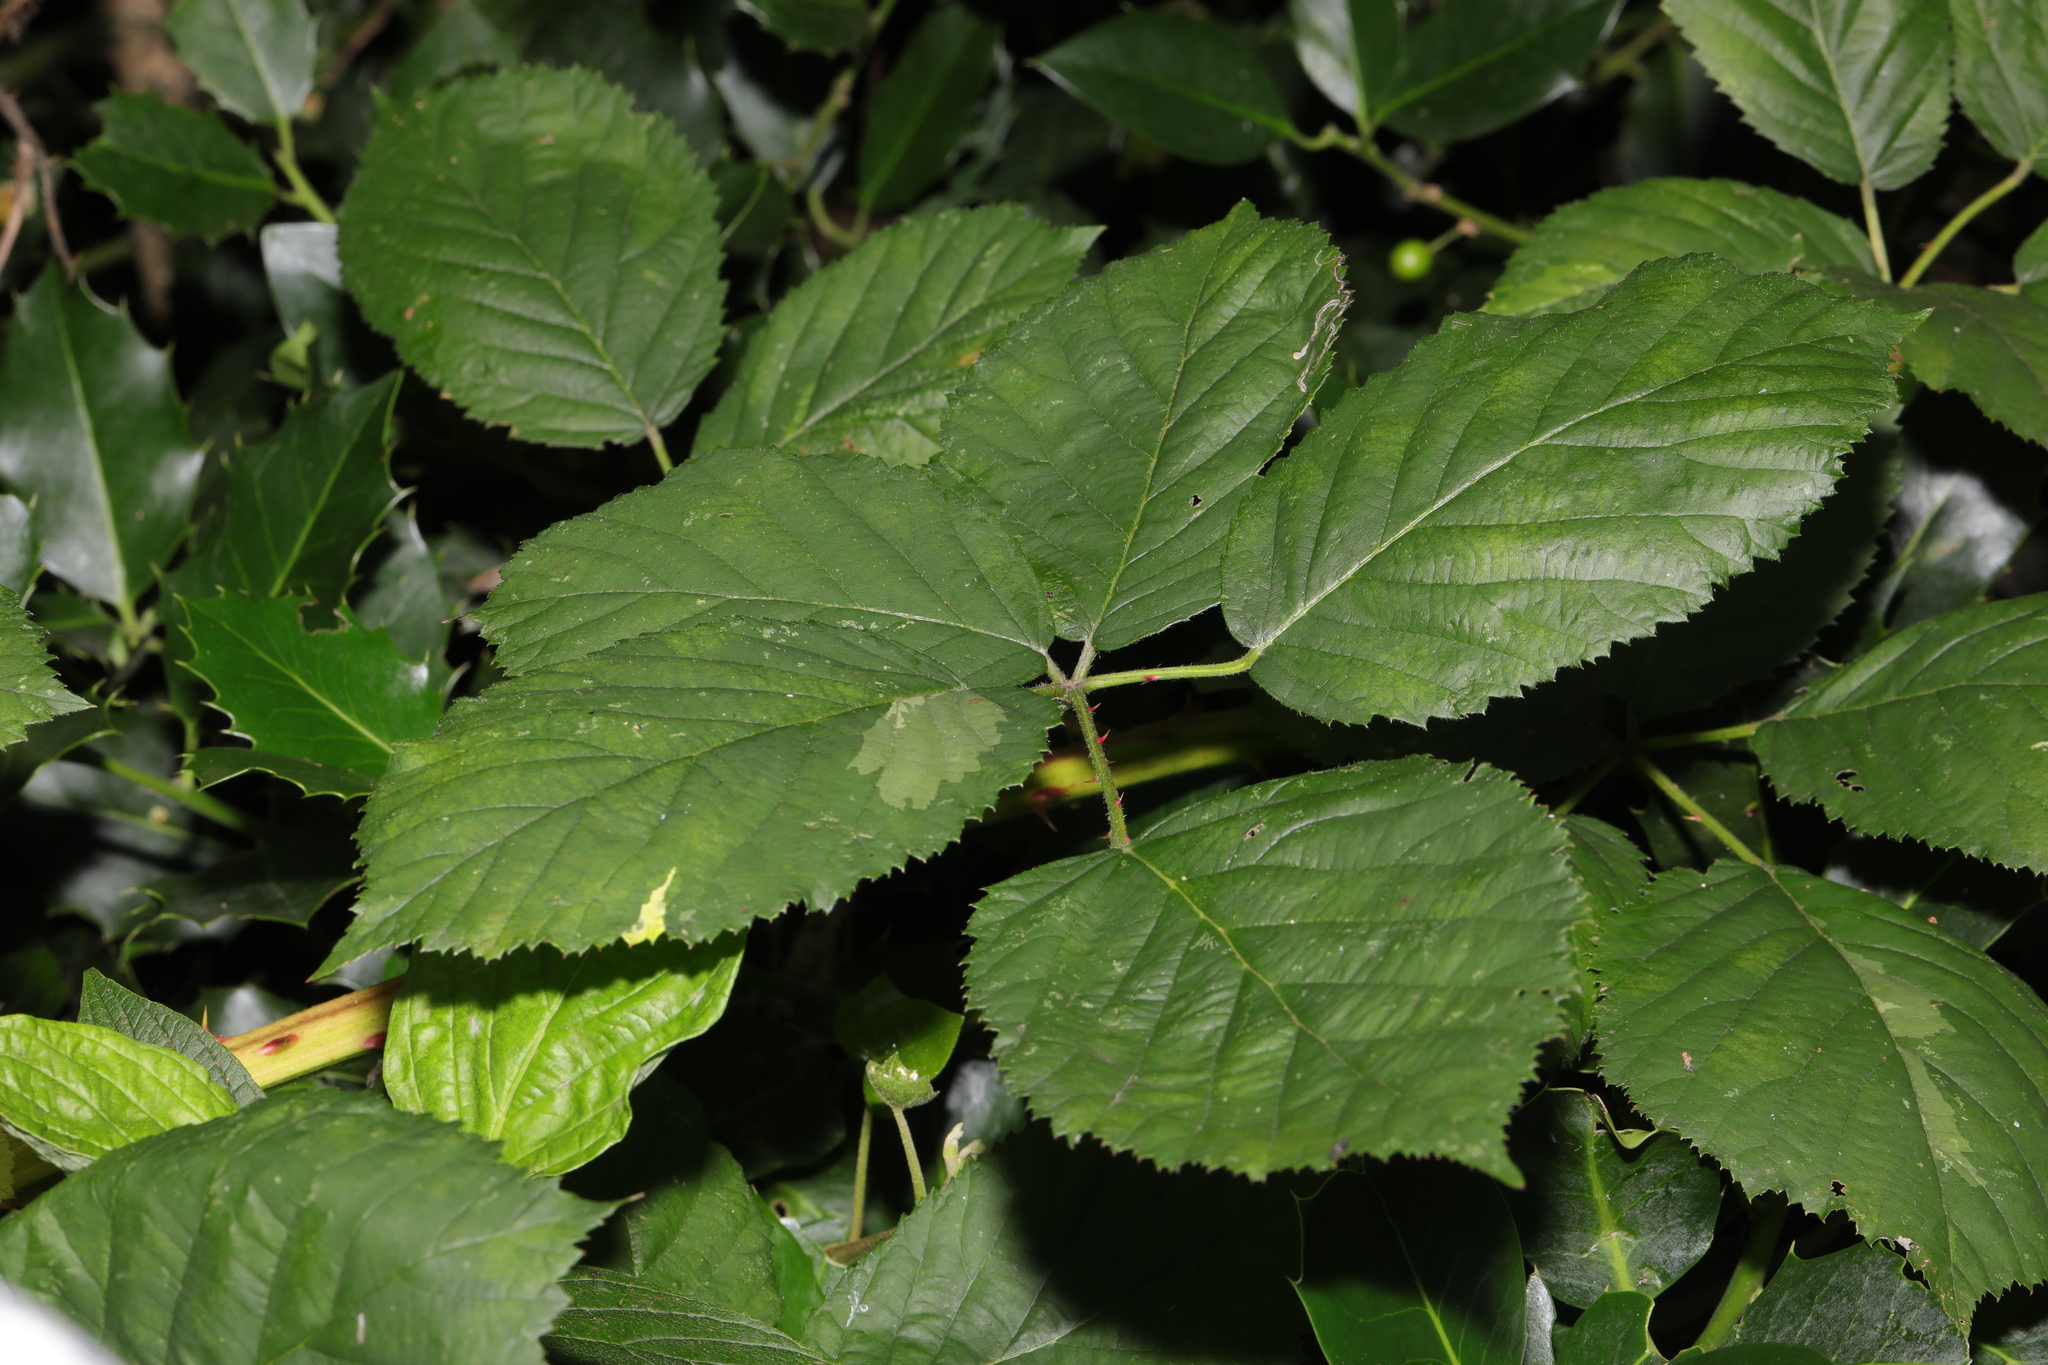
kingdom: Plantae
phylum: Tracheophyta
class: Magnoliopsida
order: Rosales
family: Rosaceae
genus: Rubus
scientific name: Rubus armeniacus
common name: Himalayan blackberry
